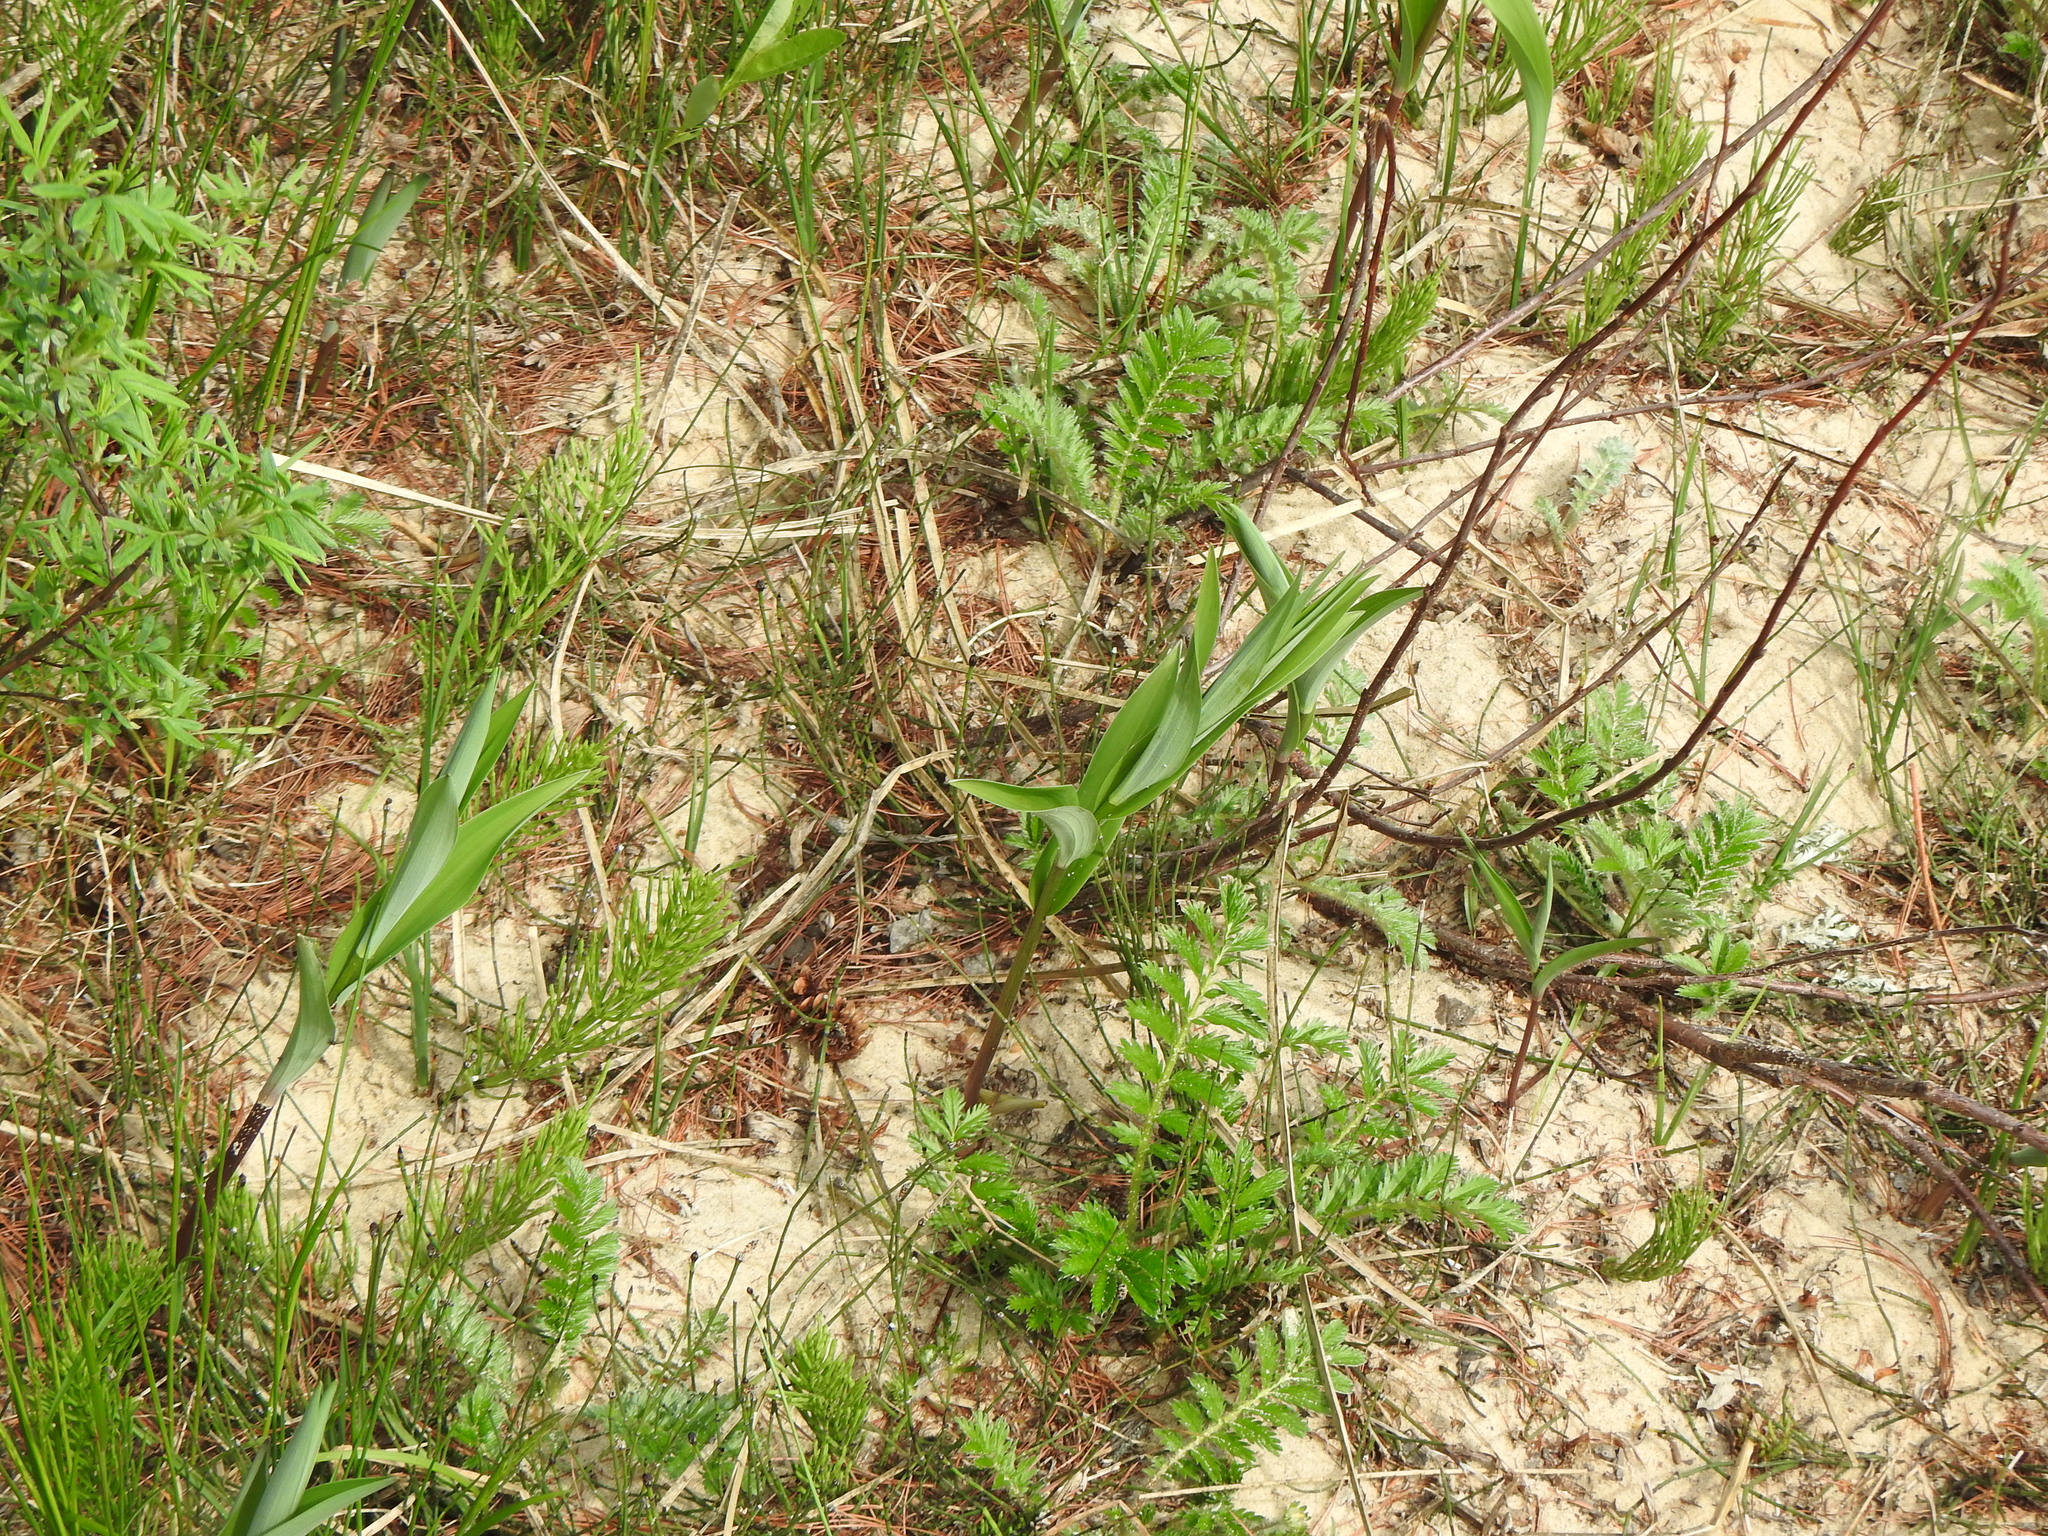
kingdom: Plantae
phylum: Tracheophyta
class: Liliopsida
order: Asparagales
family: Asparagaceae
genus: Maianthemum
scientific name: Maianthemum stellatum
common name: Little false solomon's seal
